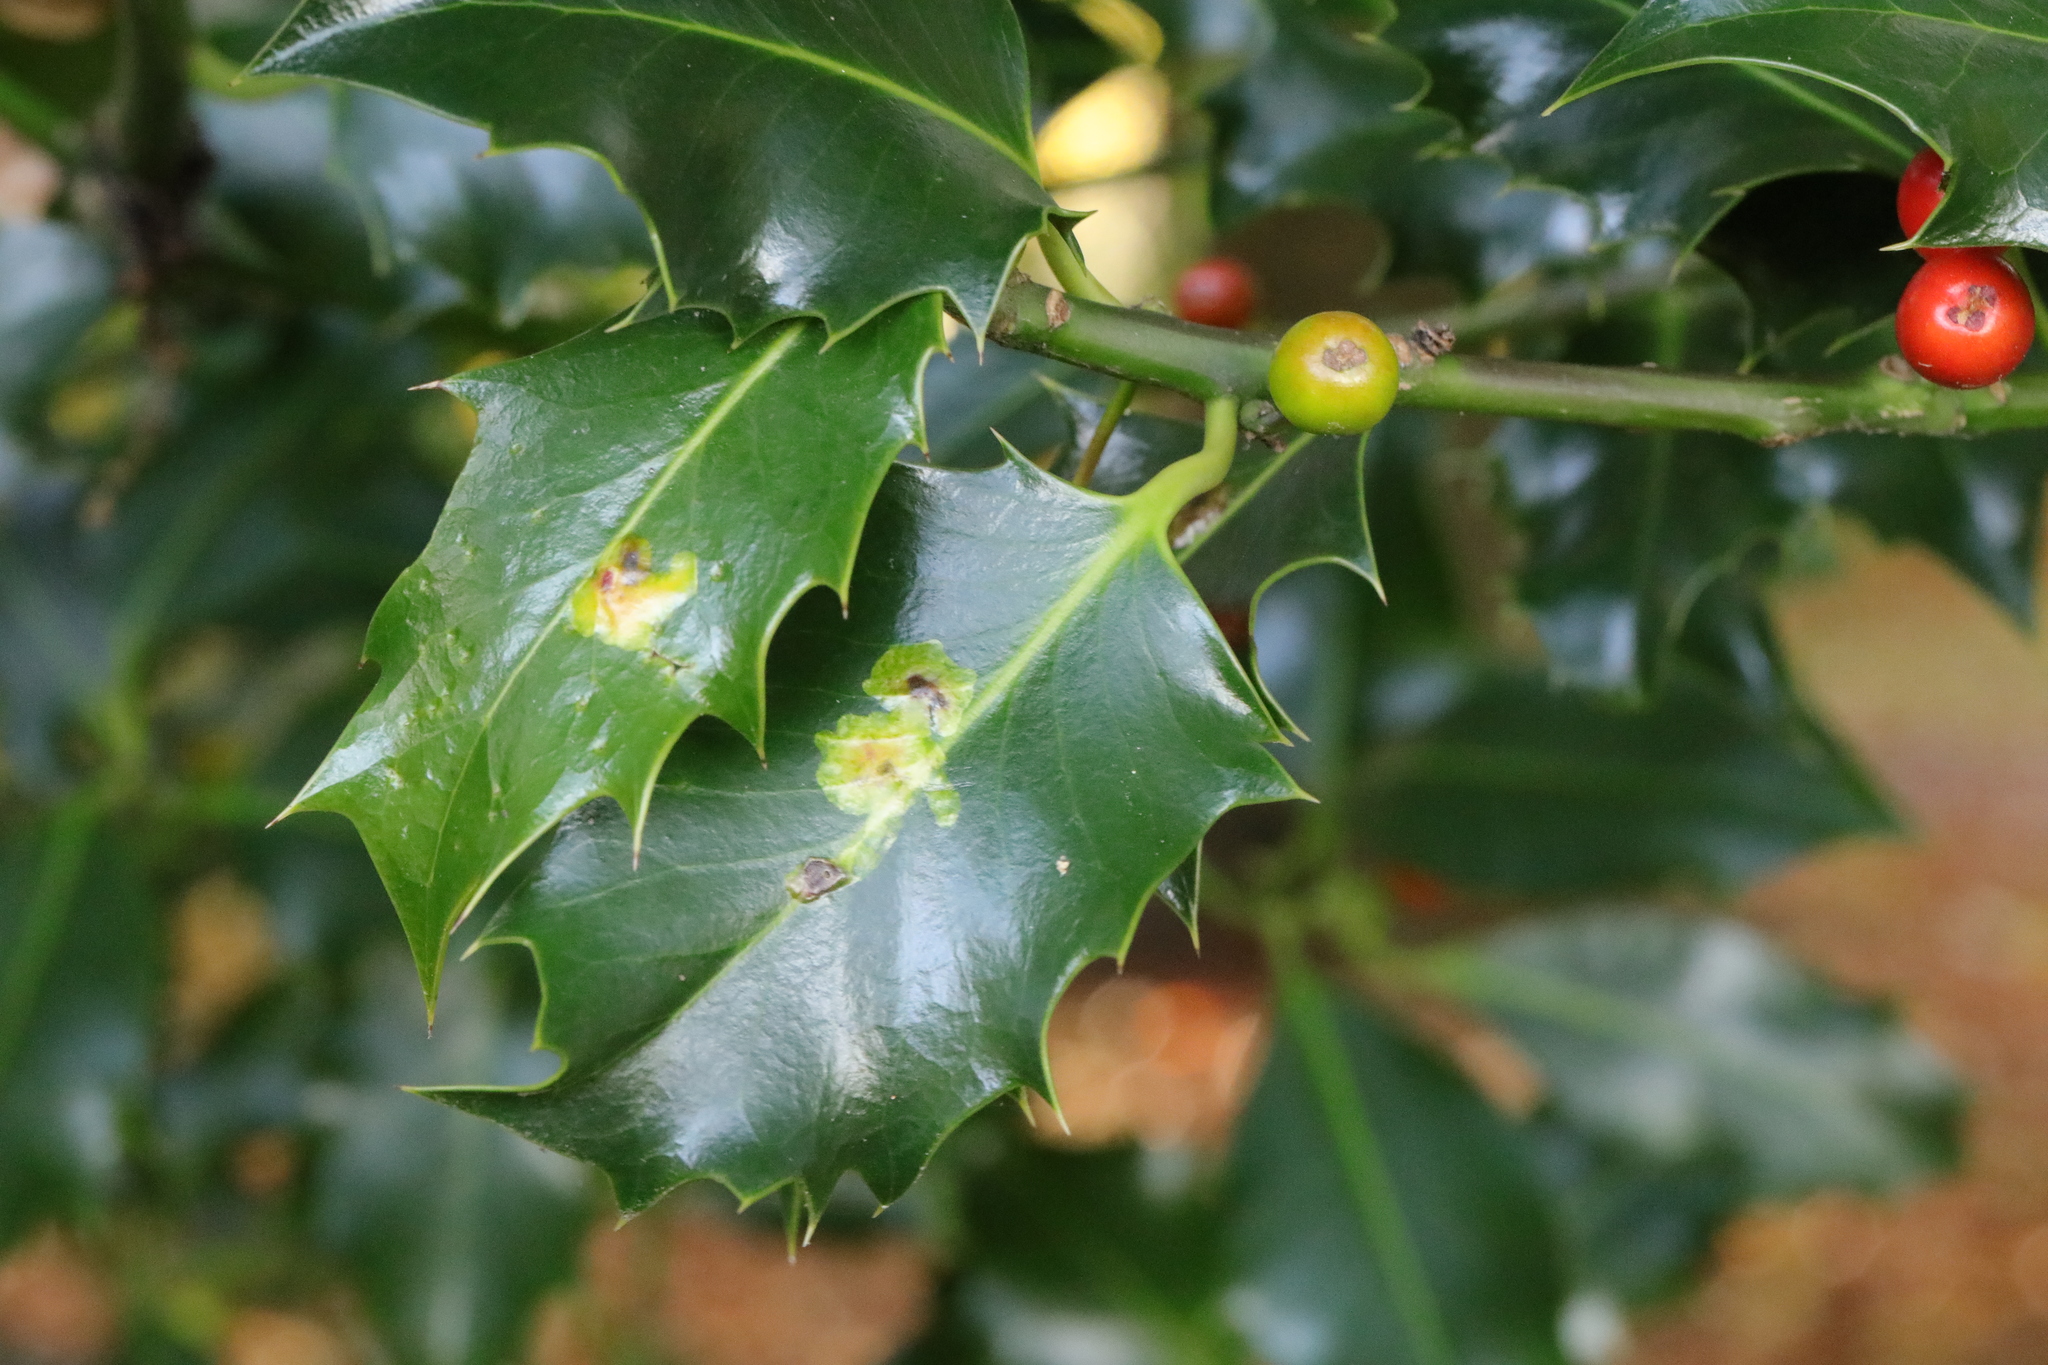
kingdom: Plantae
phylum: Tracheophyta
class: Magnoliopsida
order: Aquifoliales
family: Aquifoliaceae
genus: Ilex
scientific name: Ilex aquifolium
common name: English holly
